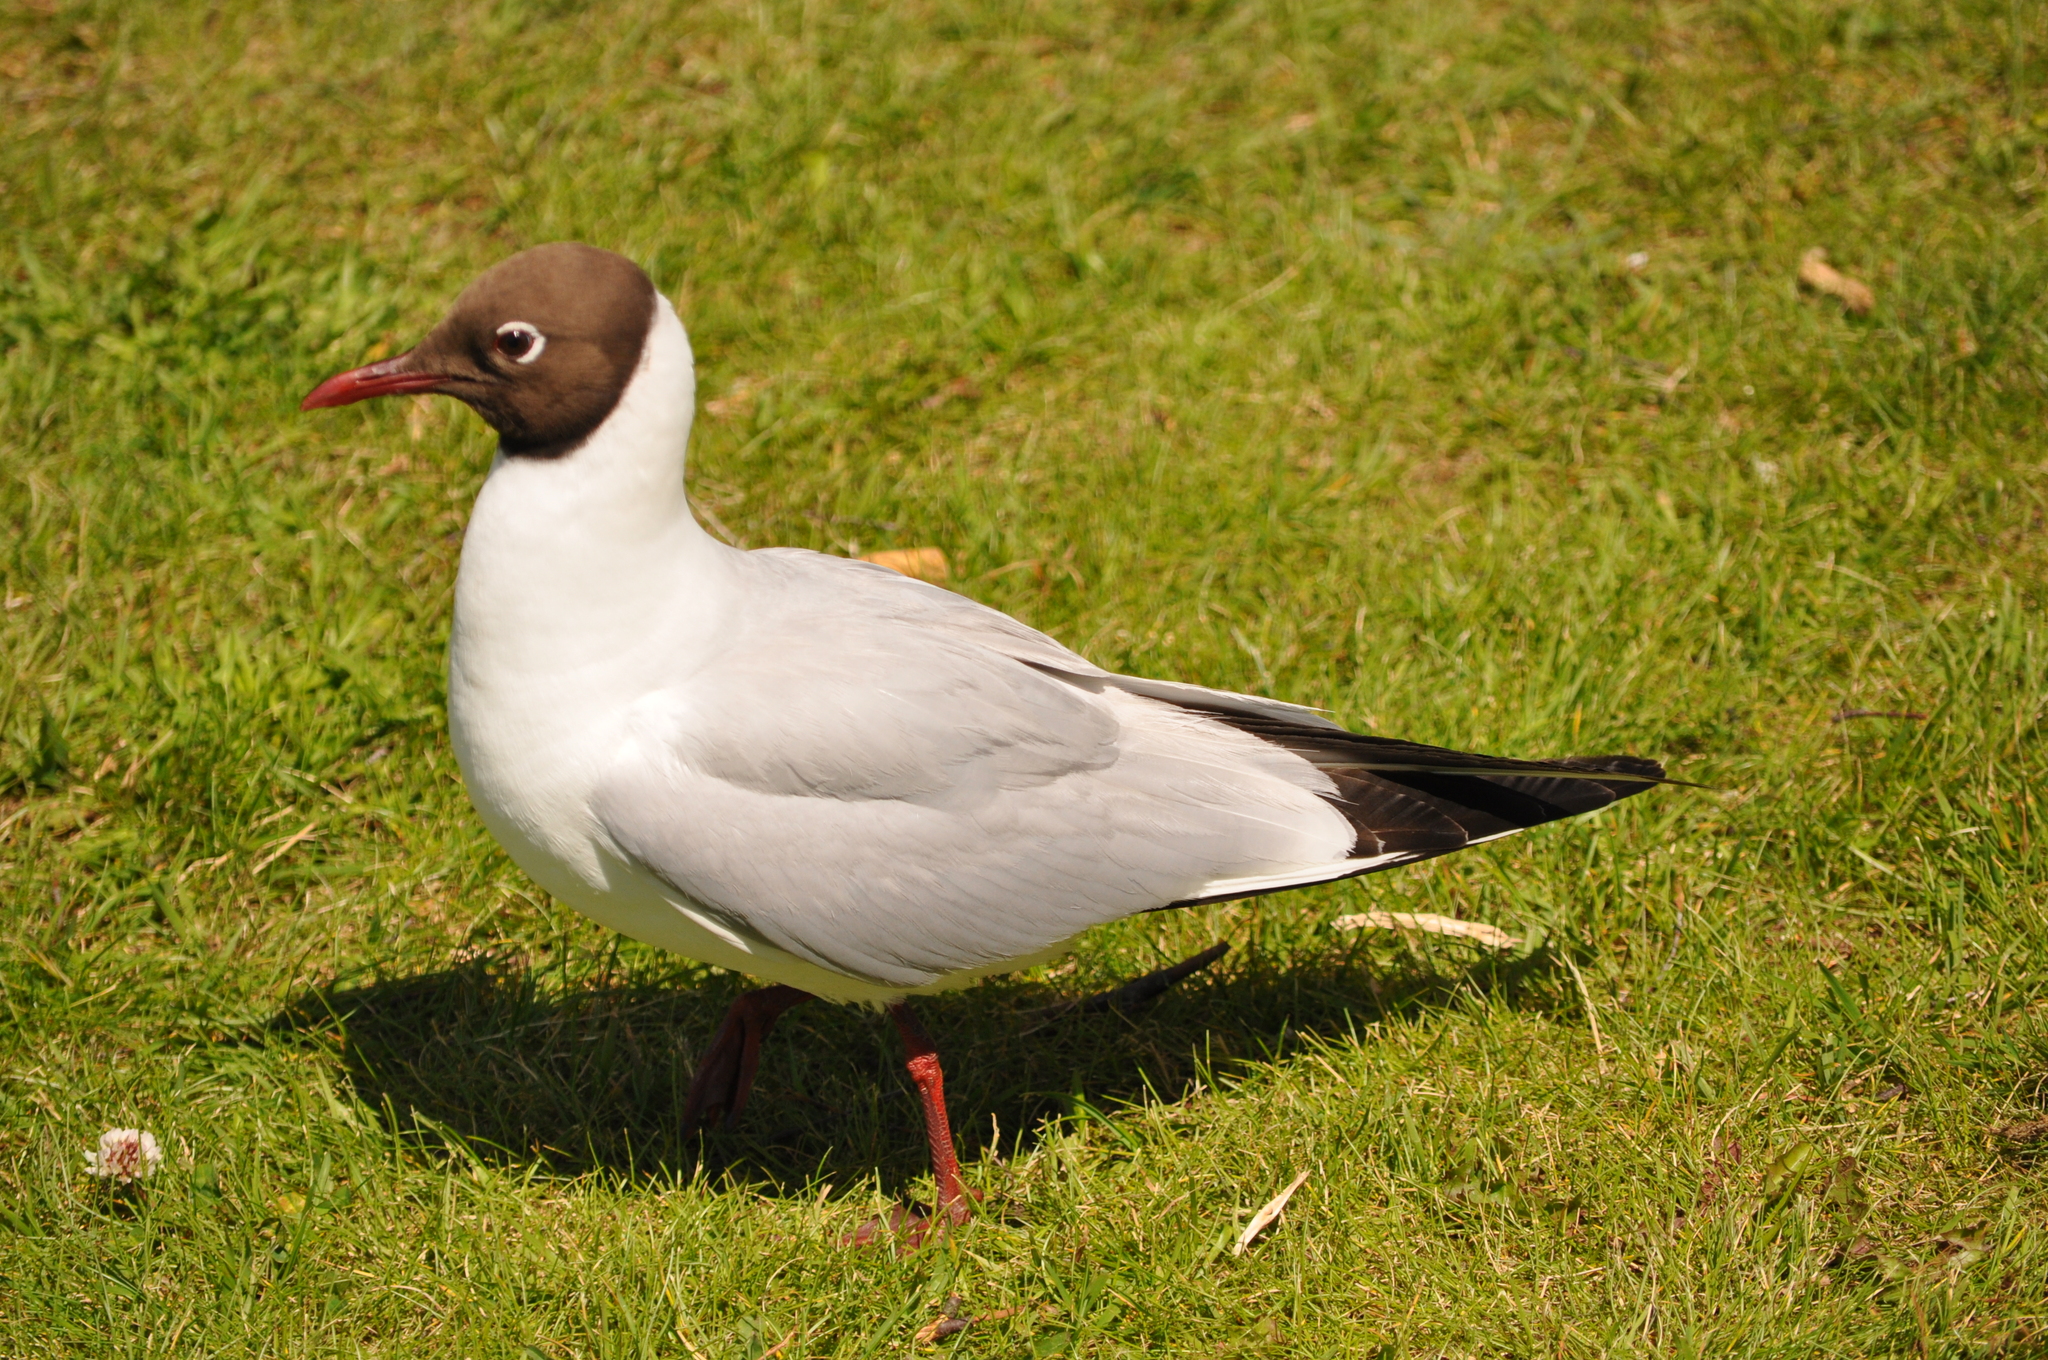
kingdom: Animalia
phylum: Chordata
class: Aves
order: Charadriiformes
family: Laridae
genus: Chroicocephalus
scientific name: Chroicocephalus ridibundus
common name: Black-headed gull
